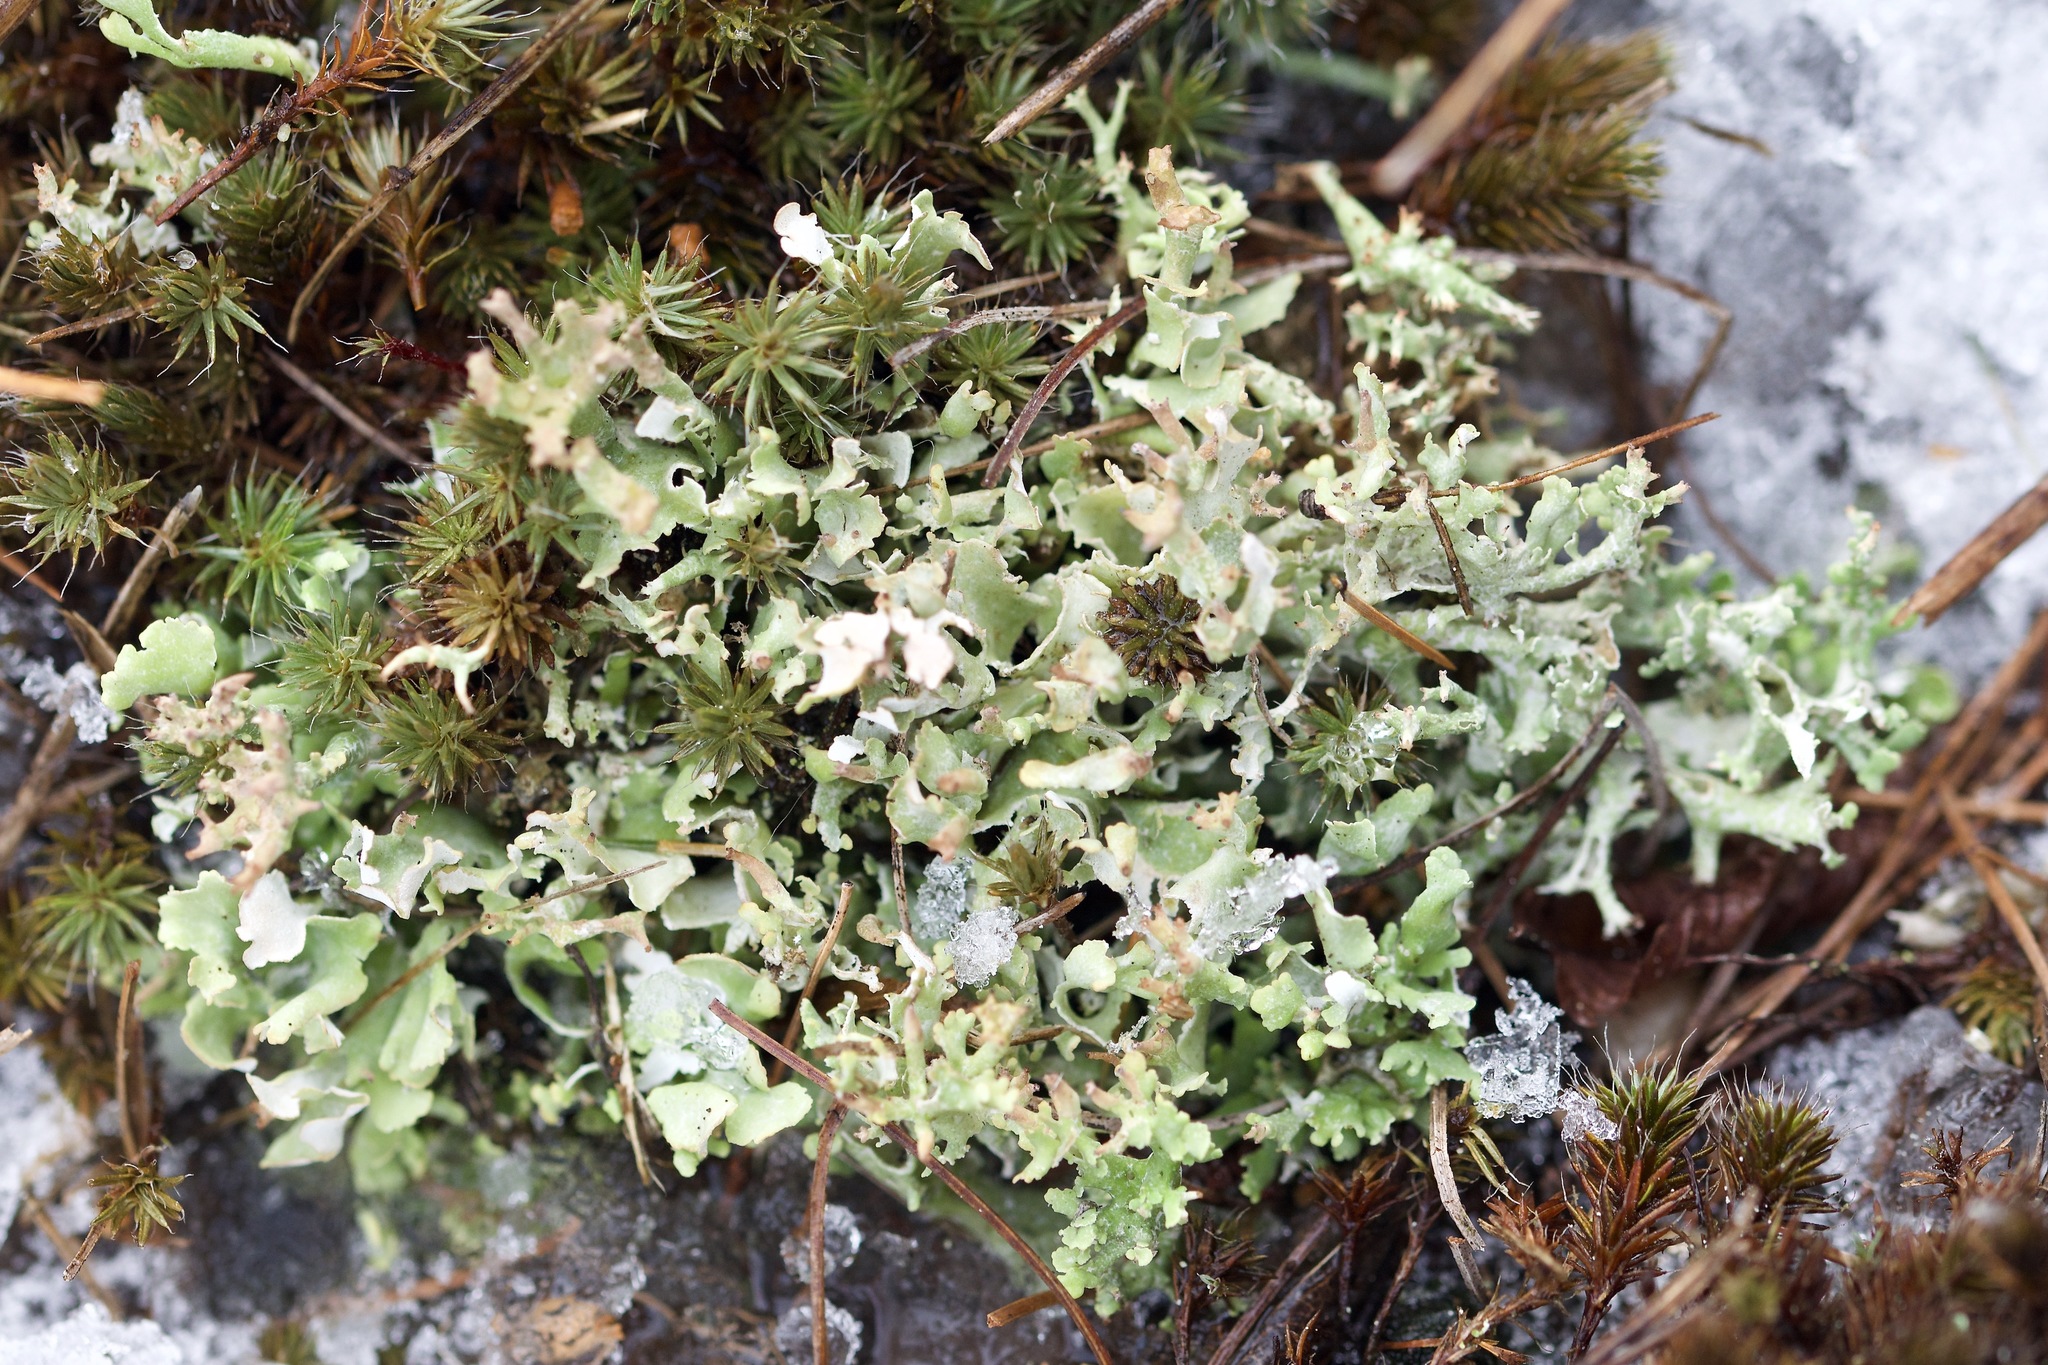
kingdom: Fungi
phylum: Ascomycota
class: Lecanoromycetes
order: Lecanorales
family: Cladoniaceae
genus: Cladonia
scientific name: Cladonia turgida
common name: Crazy scale lichen
